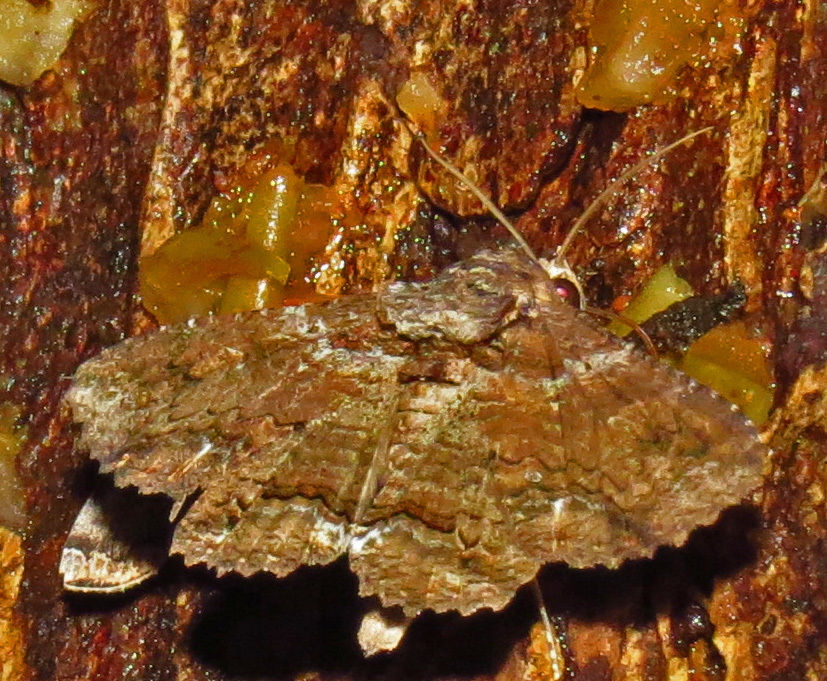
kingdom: Animalia
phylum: Arthropoda
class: Insecta
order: Lepidoptera
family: Erebidae
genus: Zale
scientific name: Zale lunata
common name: Lunate zale moth
